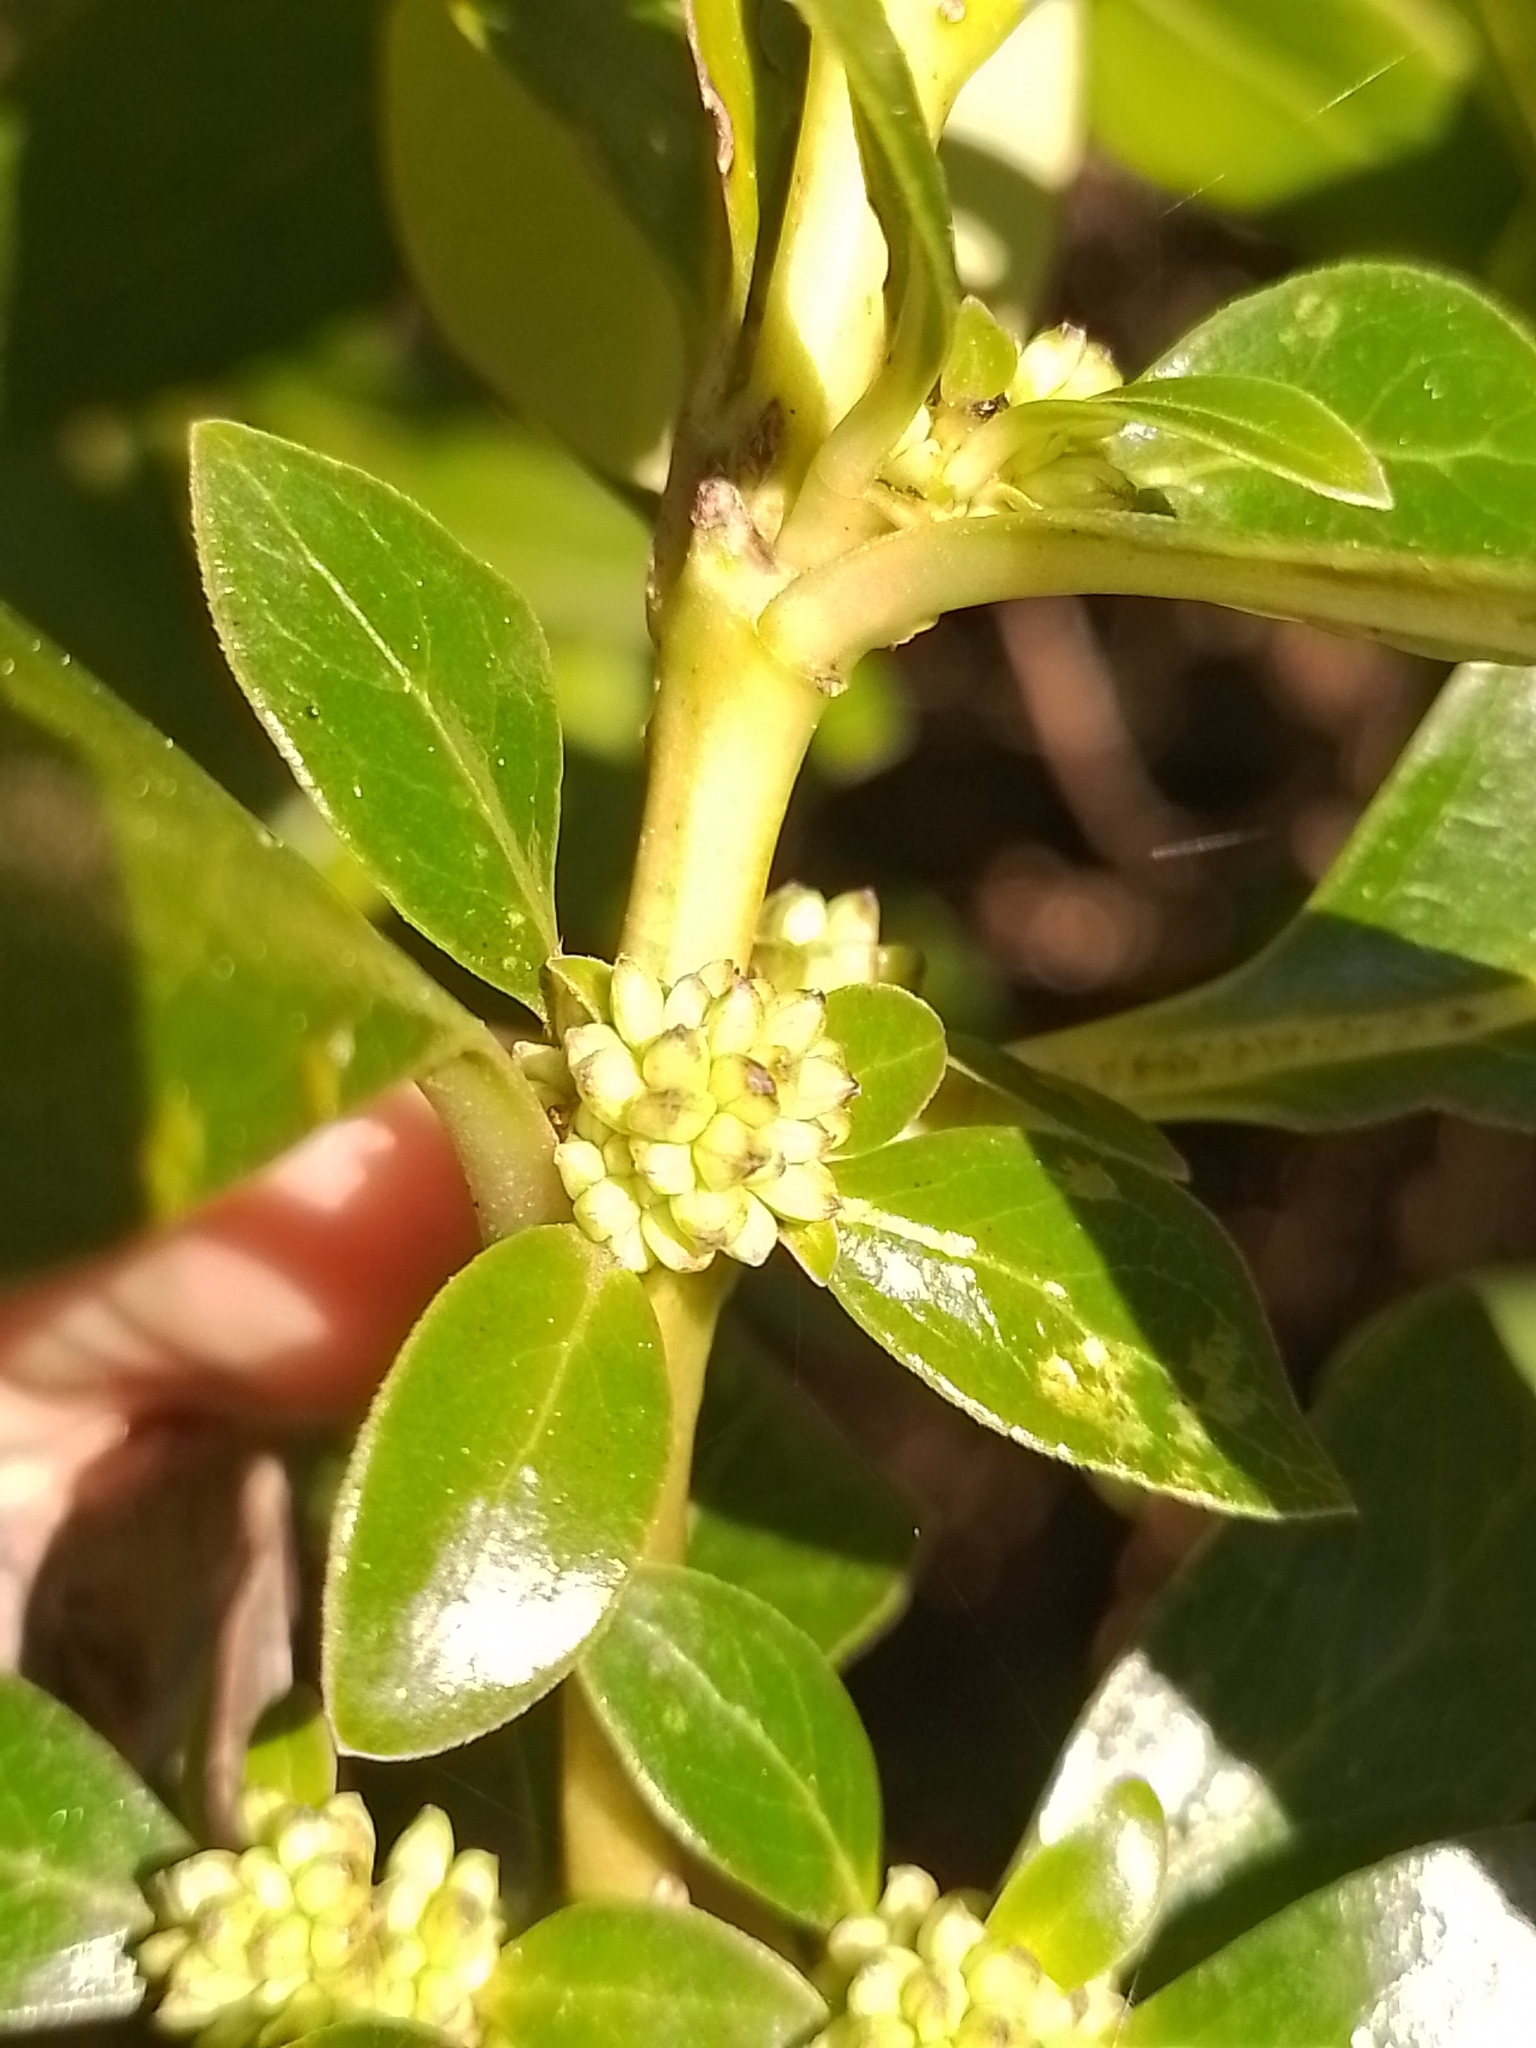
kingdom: Plantae
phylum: Tracheophyta
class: Magnoliopsida
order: Gentianales
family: Rubiaceae
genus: Coprosma
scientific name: Coprosma robusta
